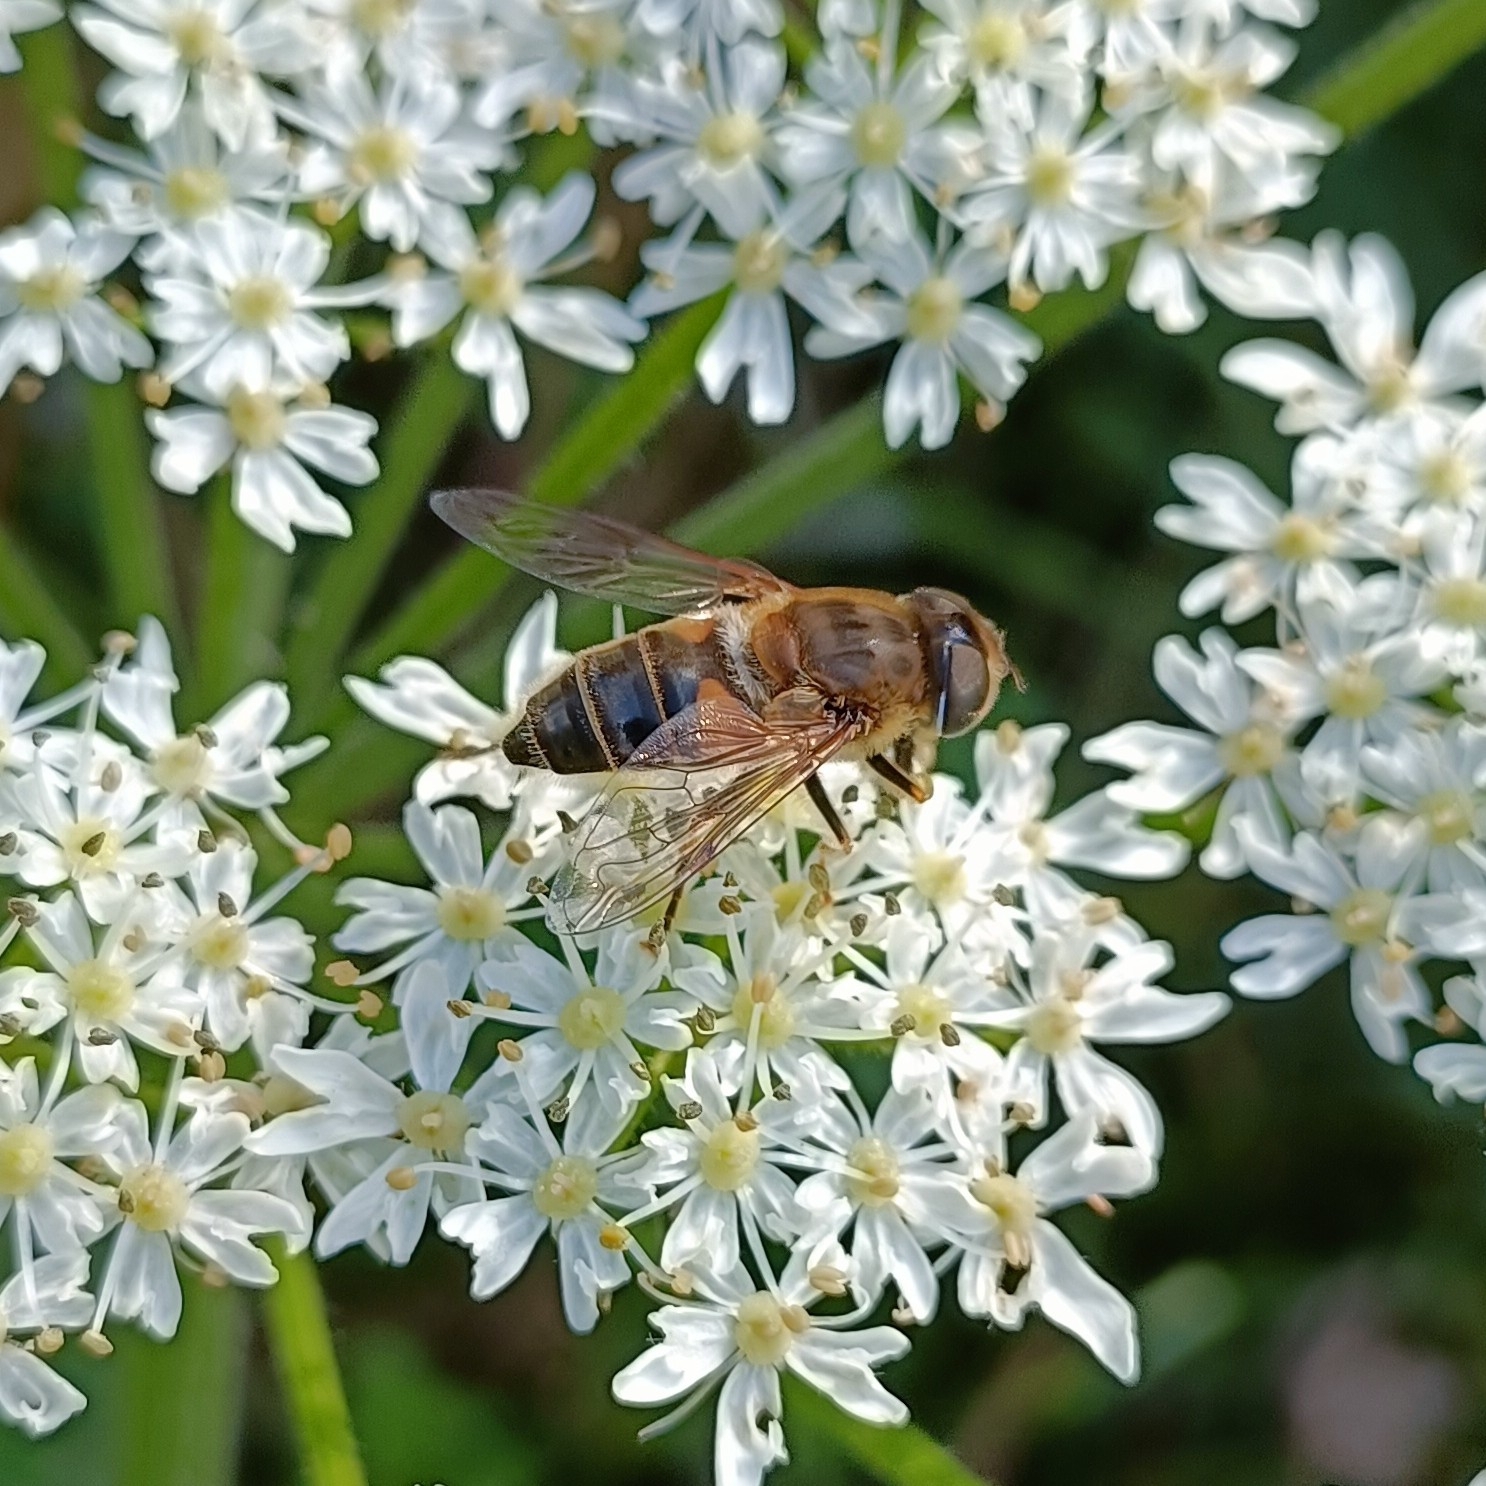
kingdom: Animalia
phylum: Arthropoda
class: Insecta
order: Diptera
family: Syrphidae
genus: Eristalis
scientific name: Eristalis pertinax
